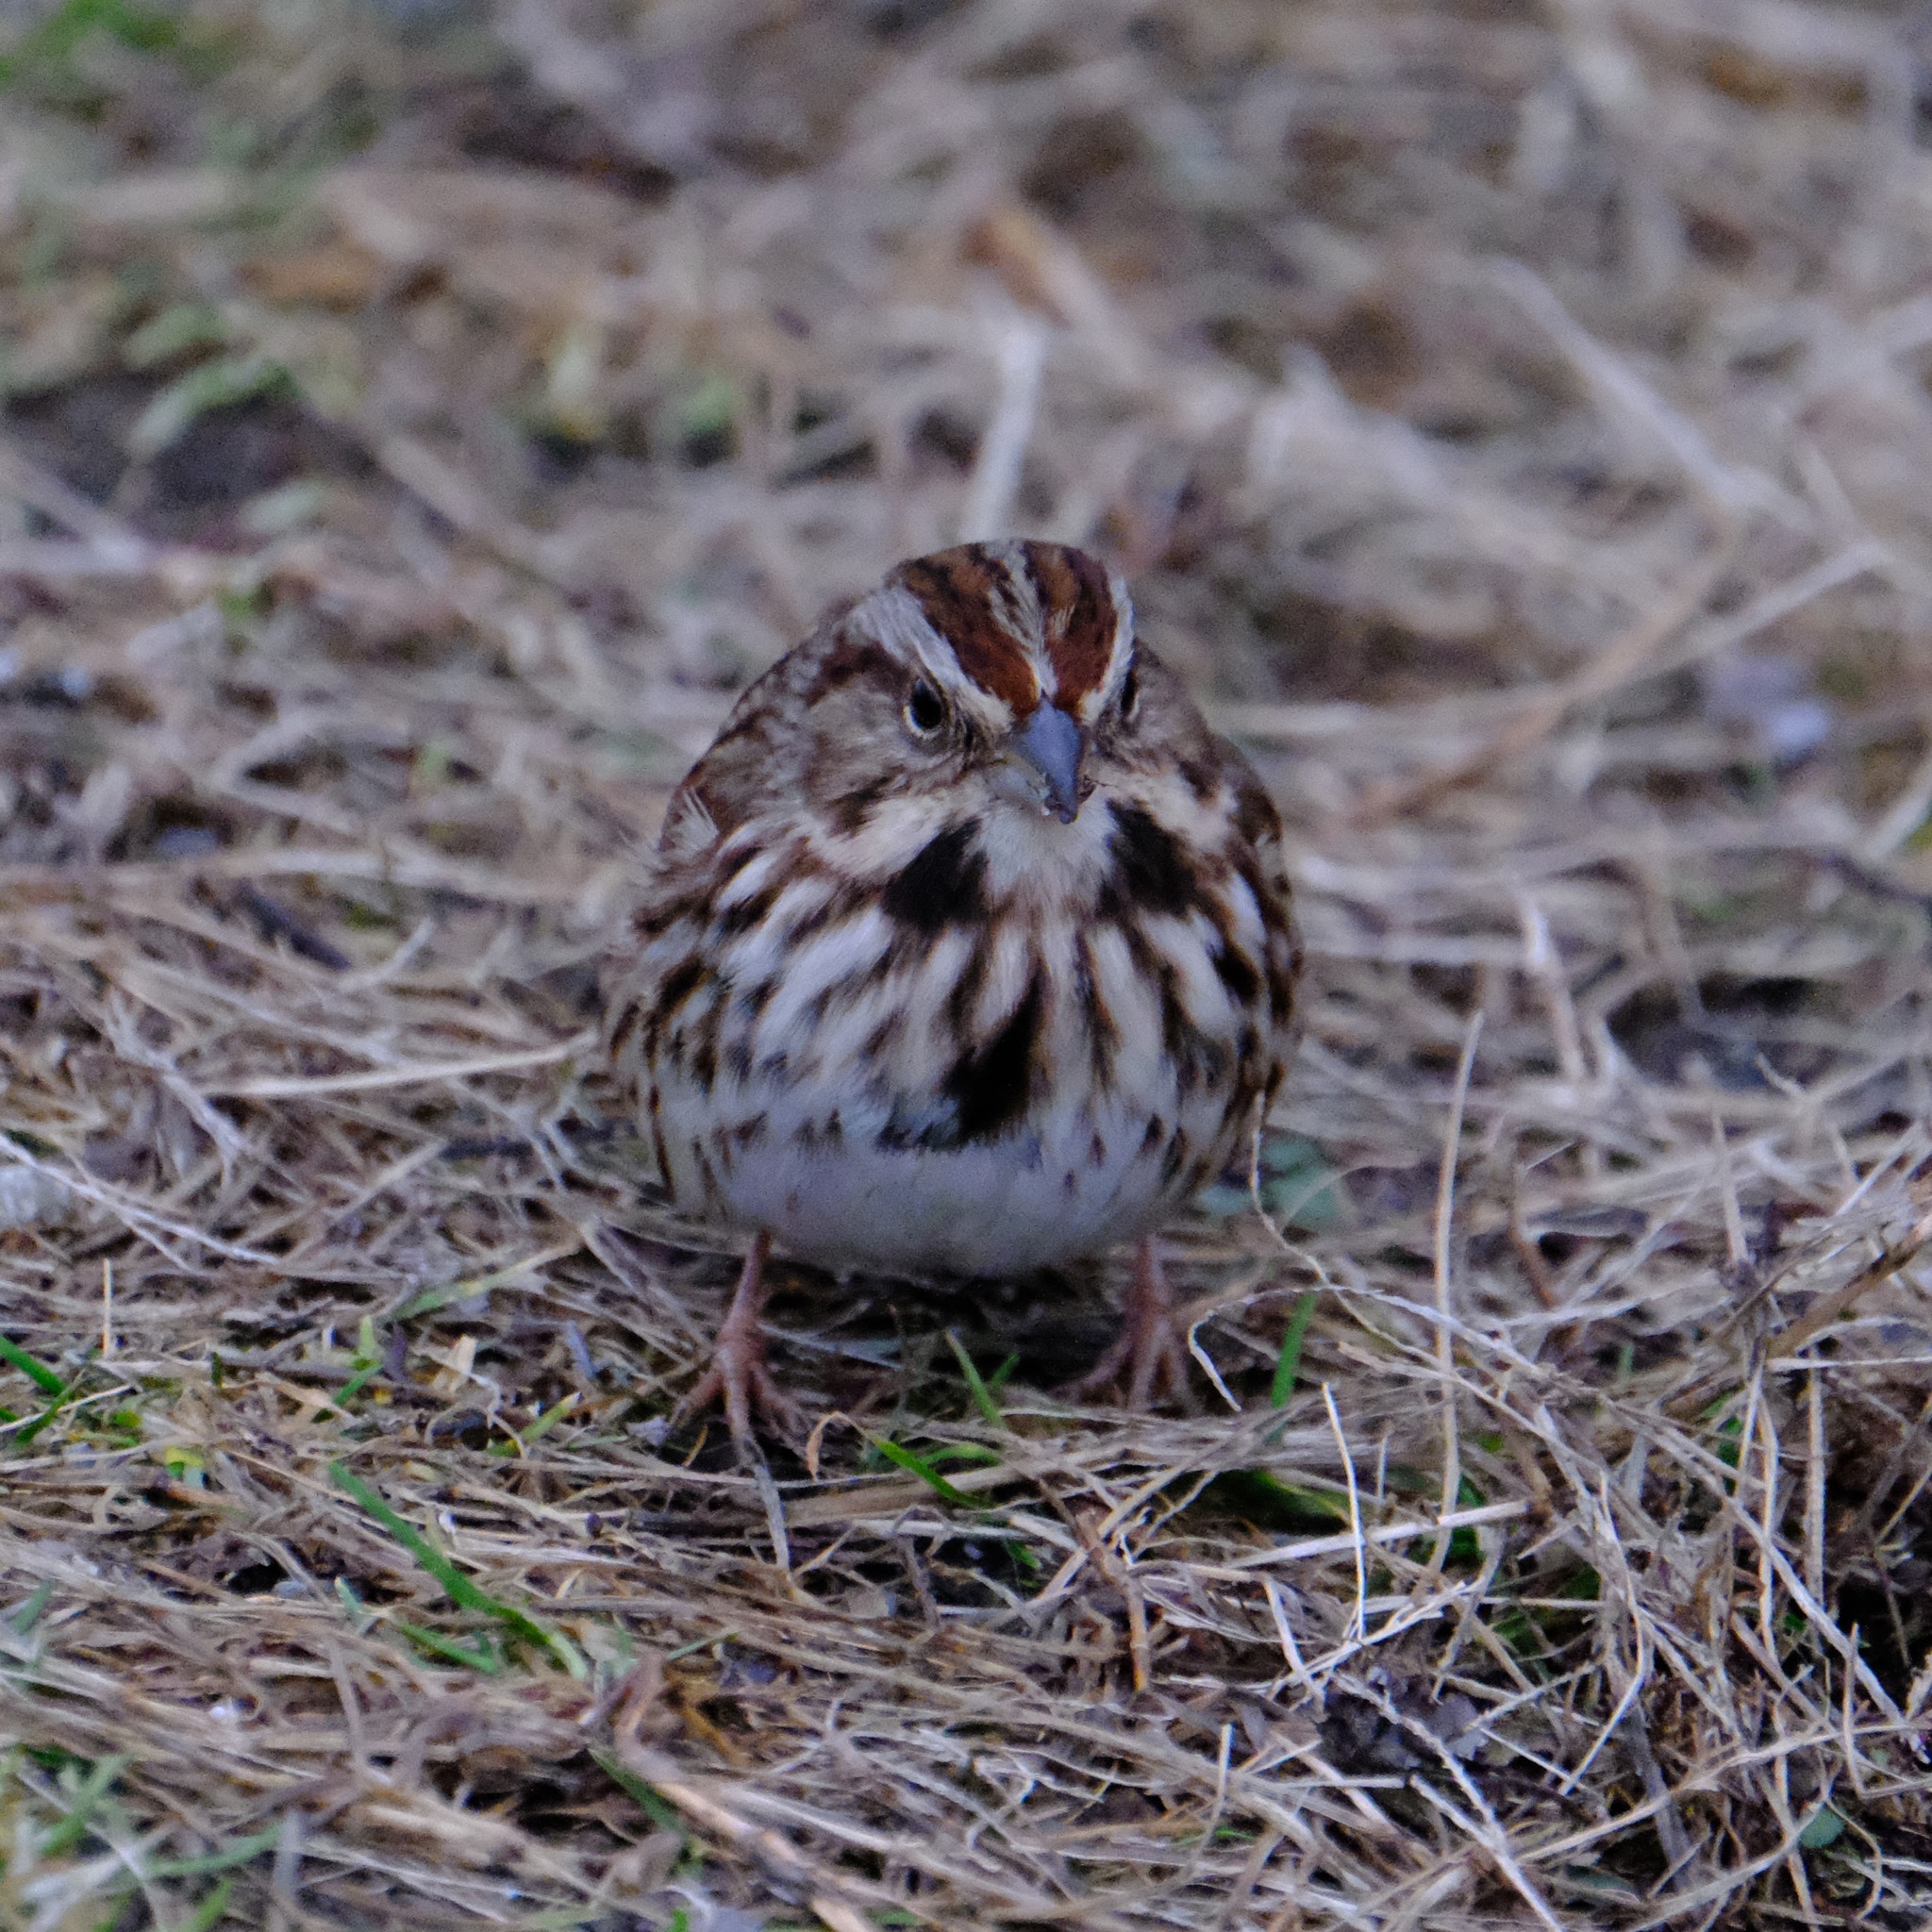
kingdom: Animalia
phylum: Chordata
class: Aves
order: Passeriformes
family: Passerellidae
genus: Melospiza
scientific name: Melospiza melodia
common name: Song sparrow
